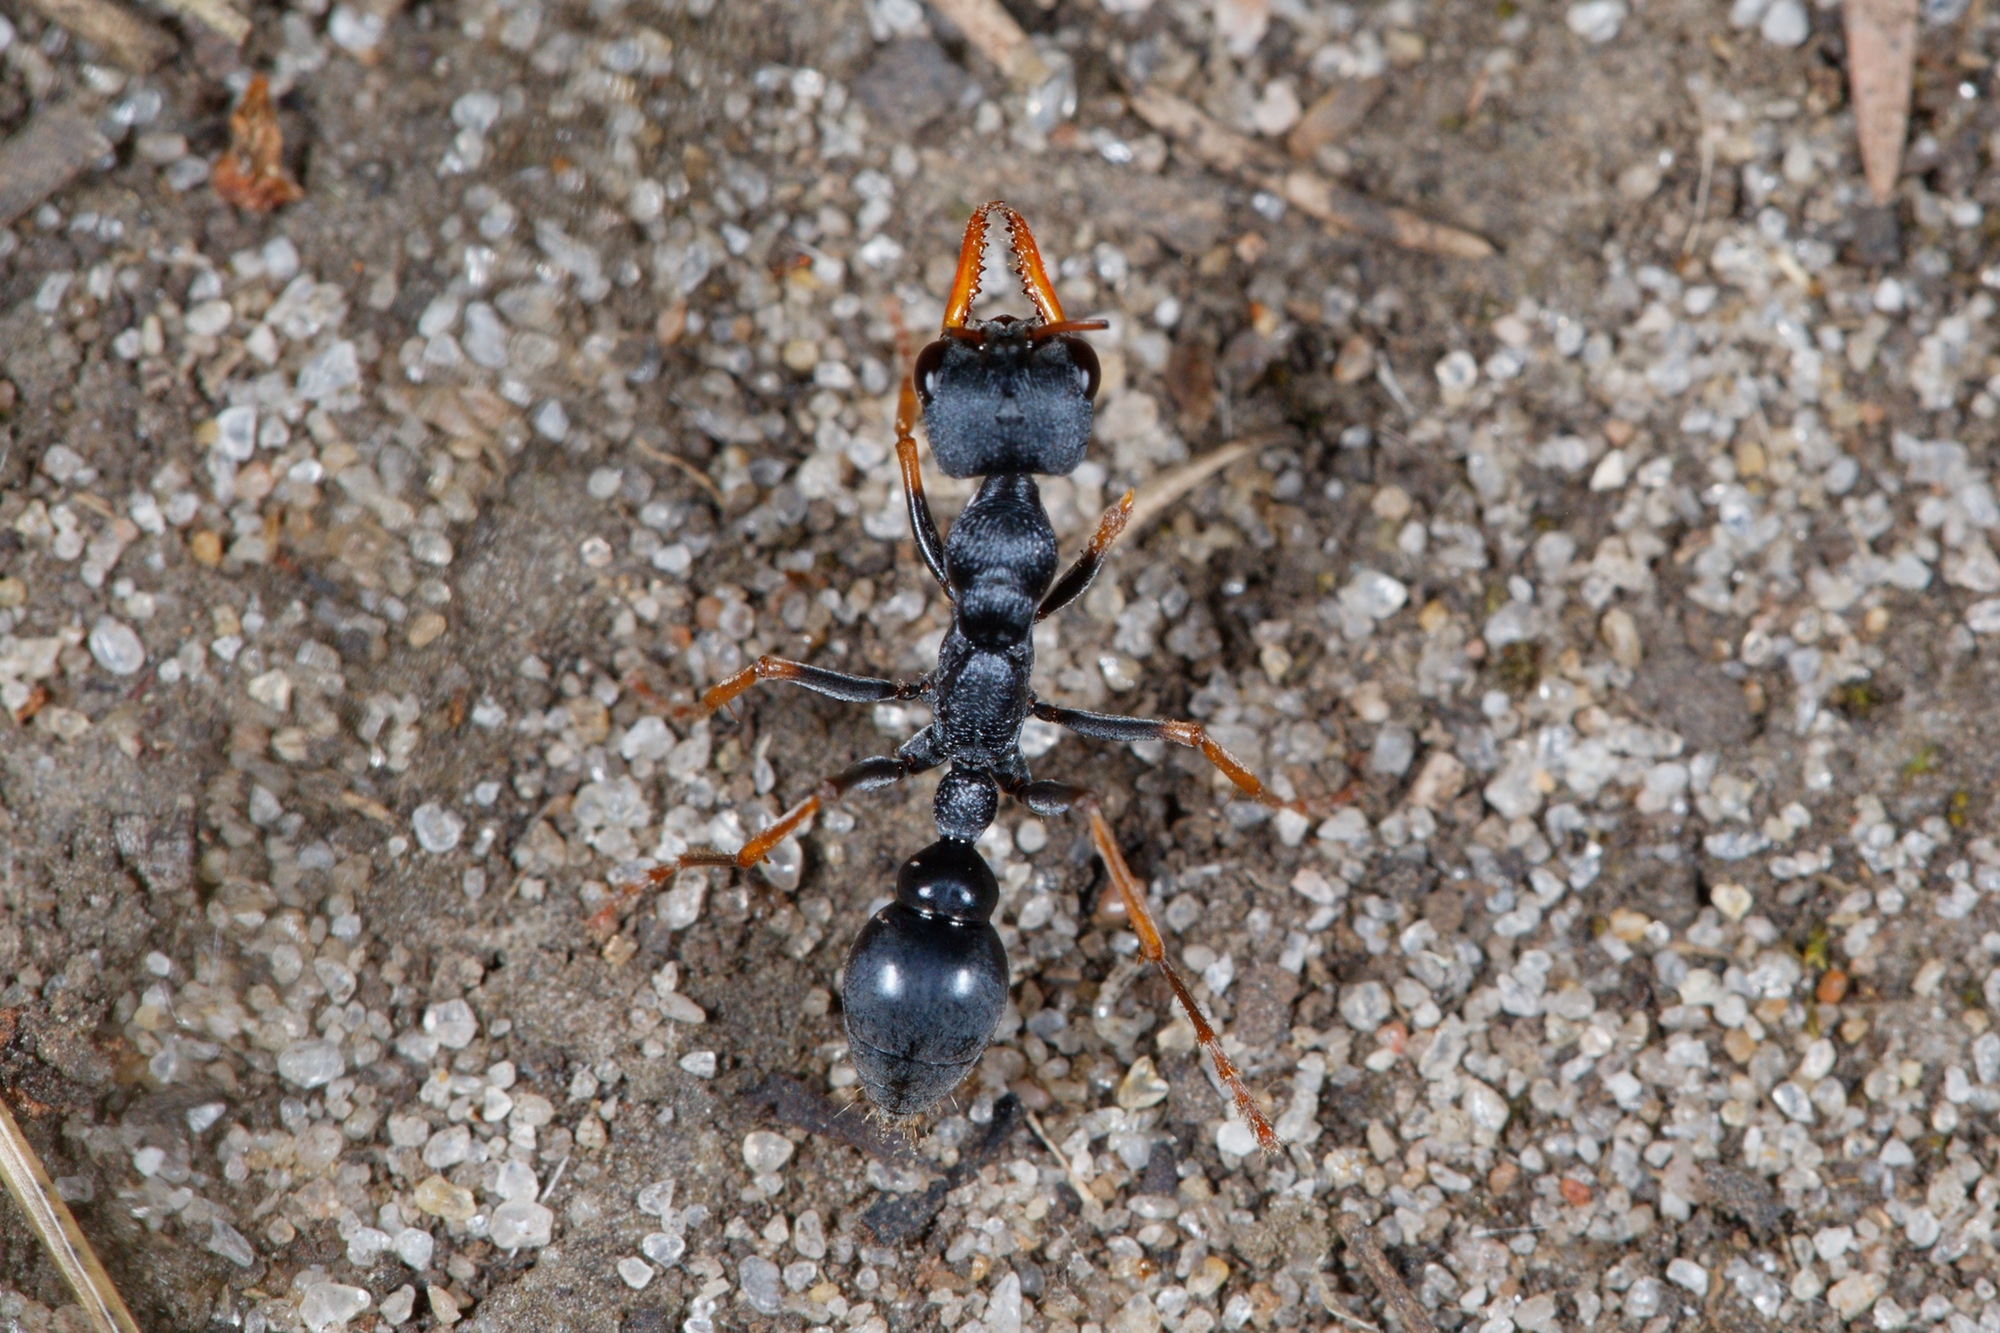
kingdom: Animalia
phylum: Arthropoda
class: Insecta
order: Hymenoptera
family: Formicidae
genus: Myrmecia
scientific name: Myrmecia pilosula
